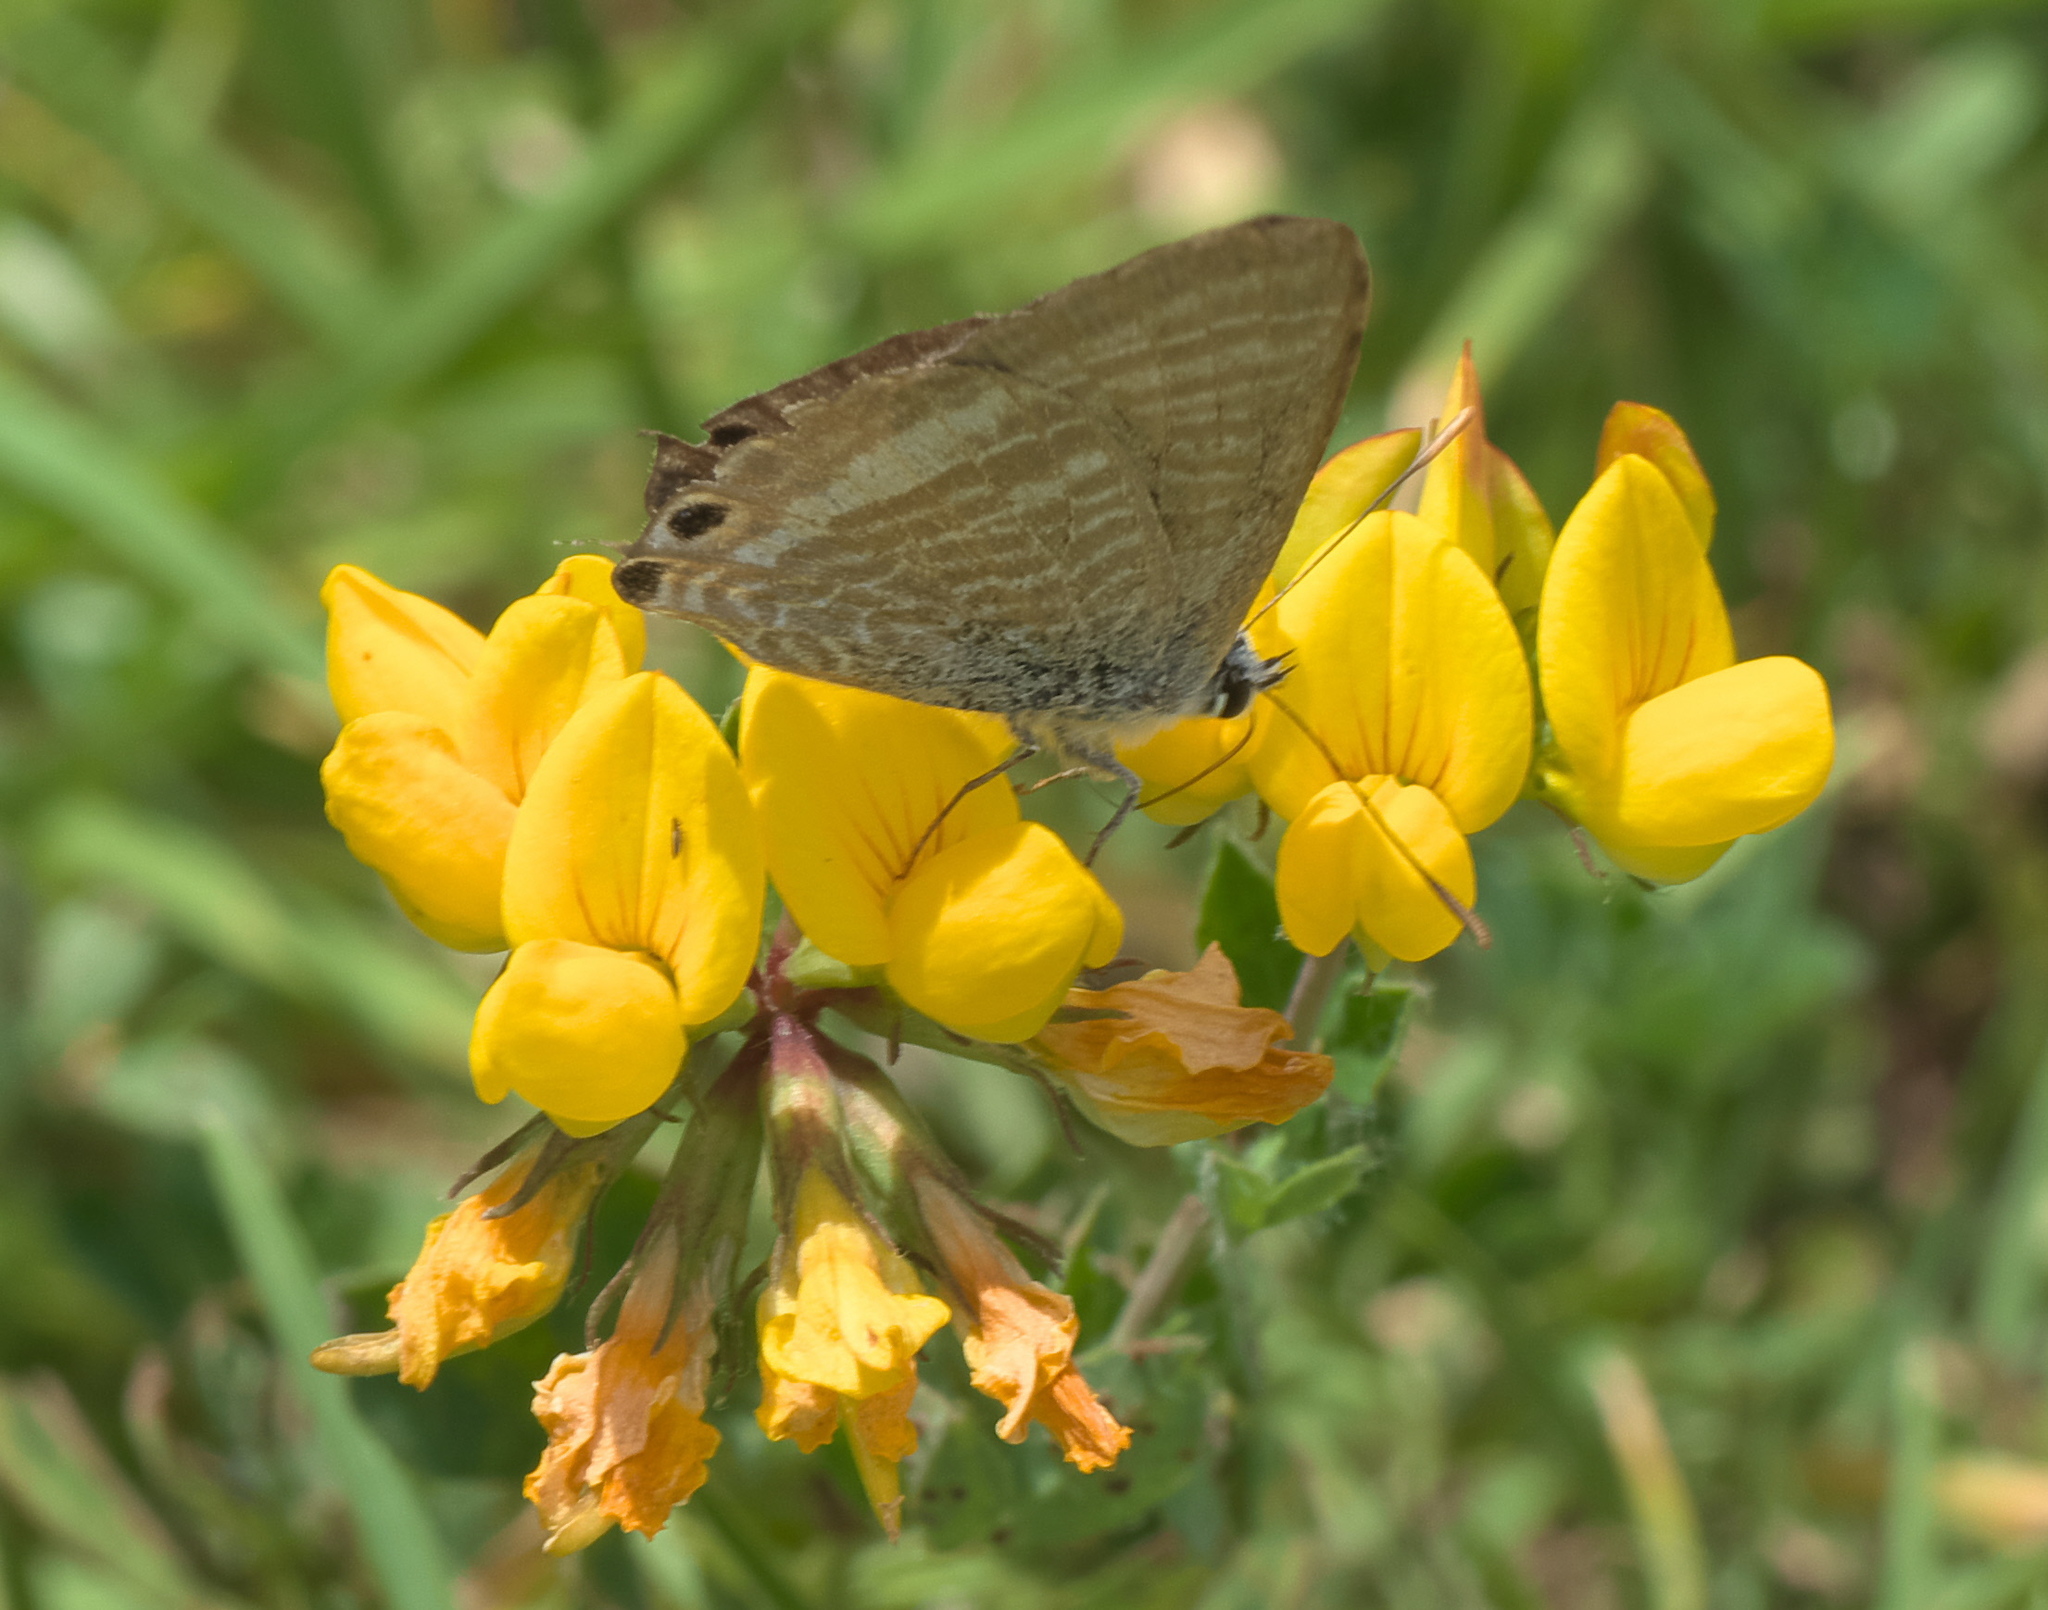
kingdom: Animalia
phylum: Arthropoda
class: Insecta
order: Lepidoptera
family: Lycaenidae
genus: Lampides
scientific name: Lampides boeticus
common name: Long-tailed blue
